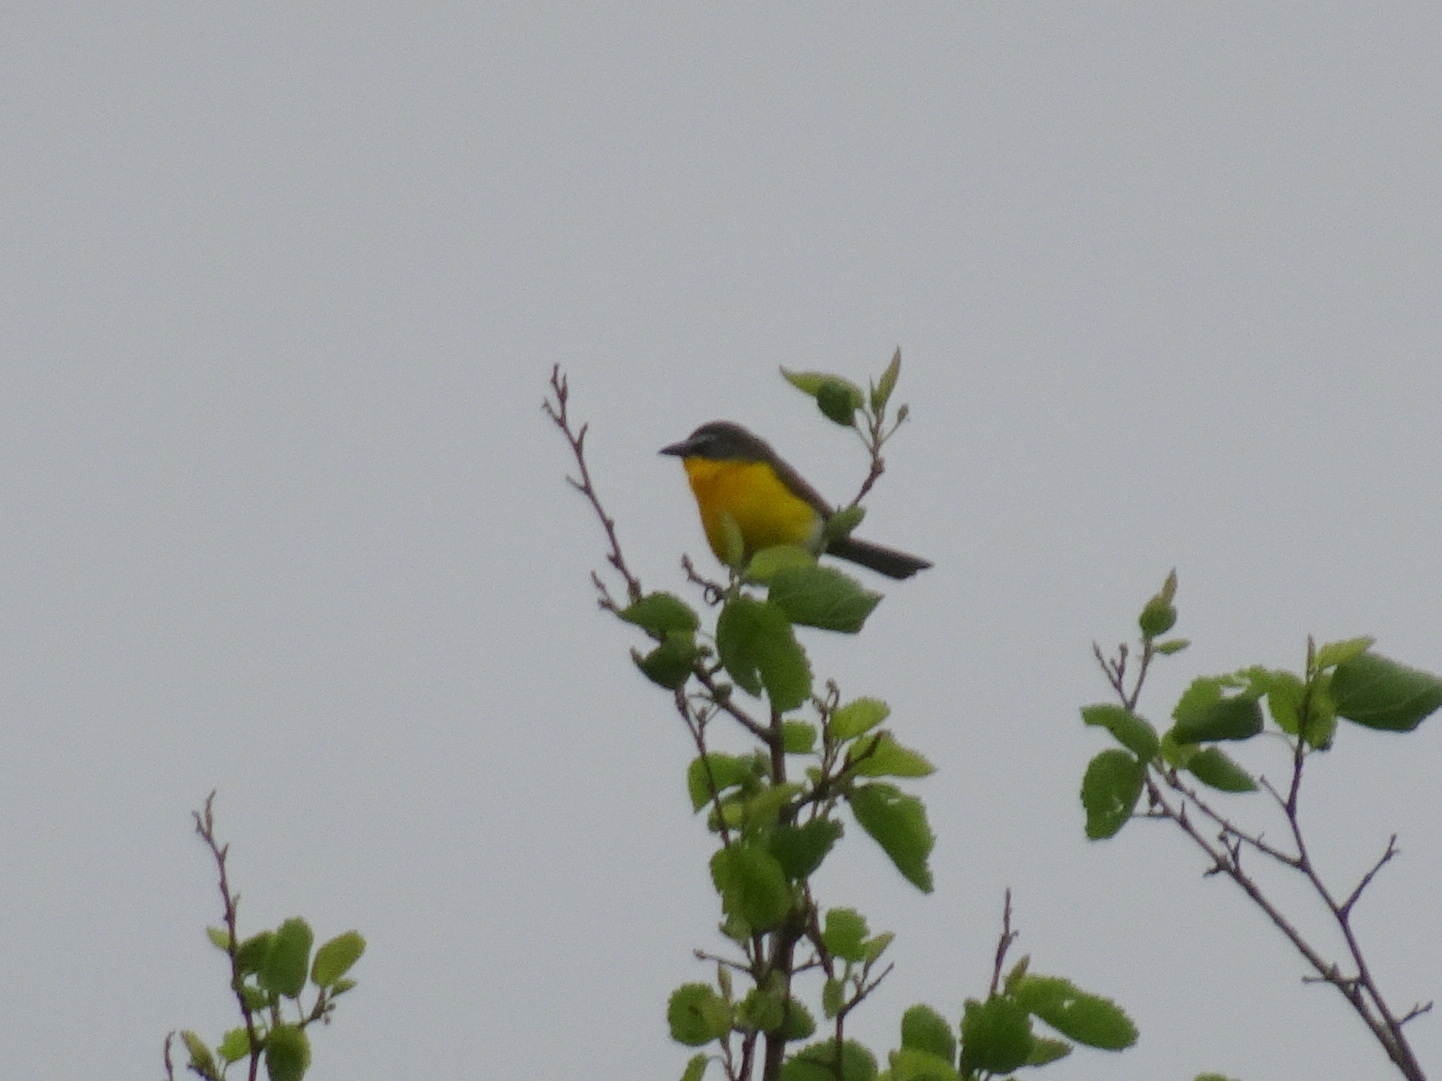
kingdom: Animalia
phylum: Chordata
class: Aves
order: Passeriformes
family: Parulidae
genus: Icteria
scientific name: Icteria virens
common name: Yellow-breasted chat
